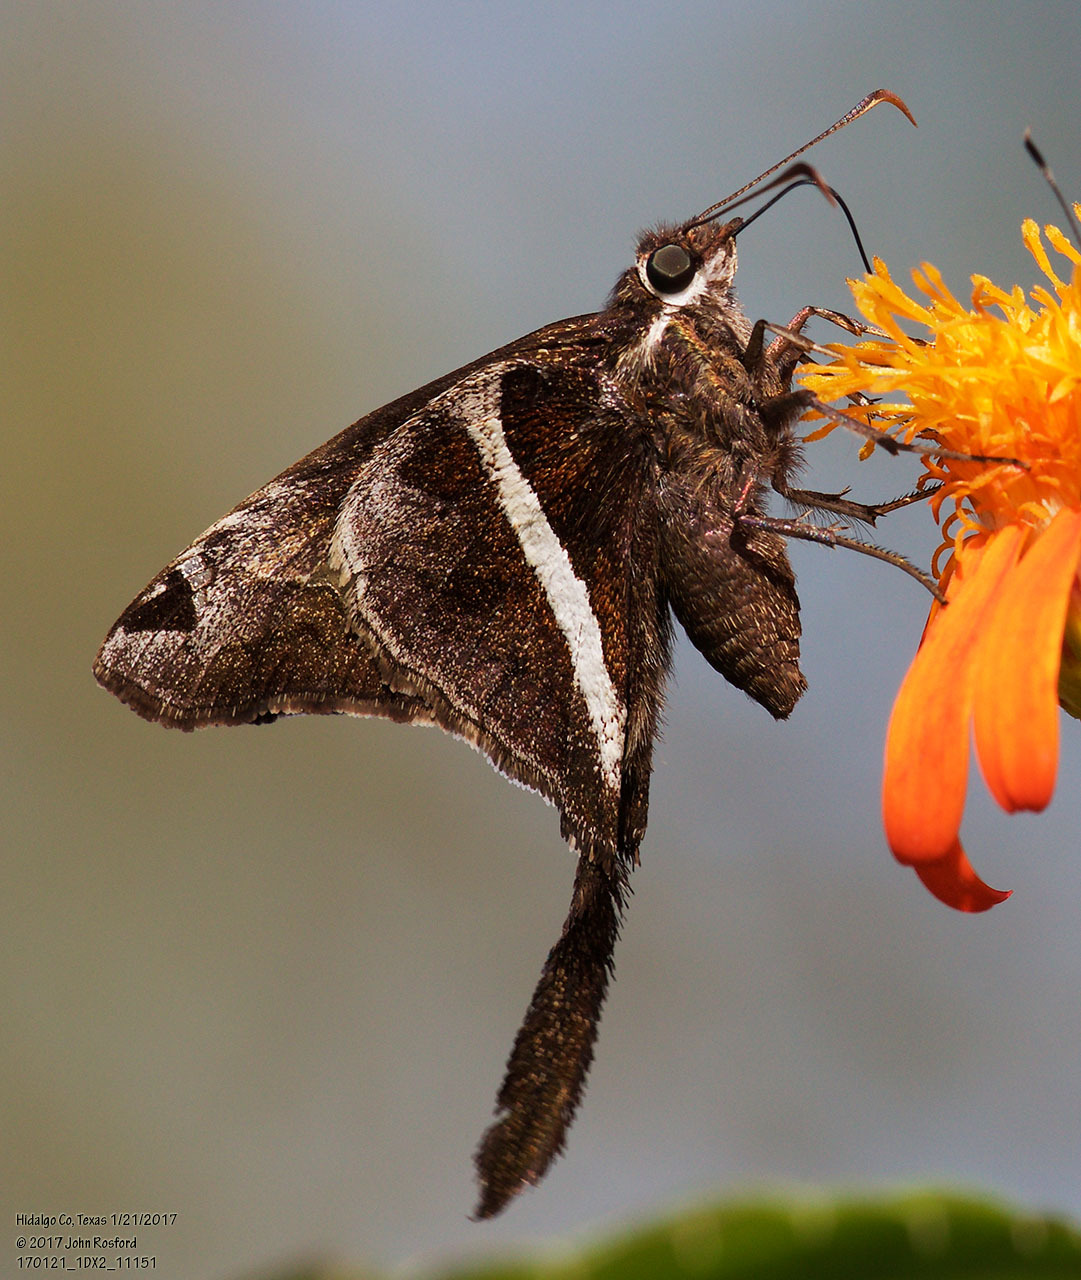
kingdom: Animalia
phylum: Arthropoda
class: Insecta
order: Lepidoptera
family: Hesperiidae
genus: Chioides
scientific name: Chioides catillus
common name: Silverbanded skipper
